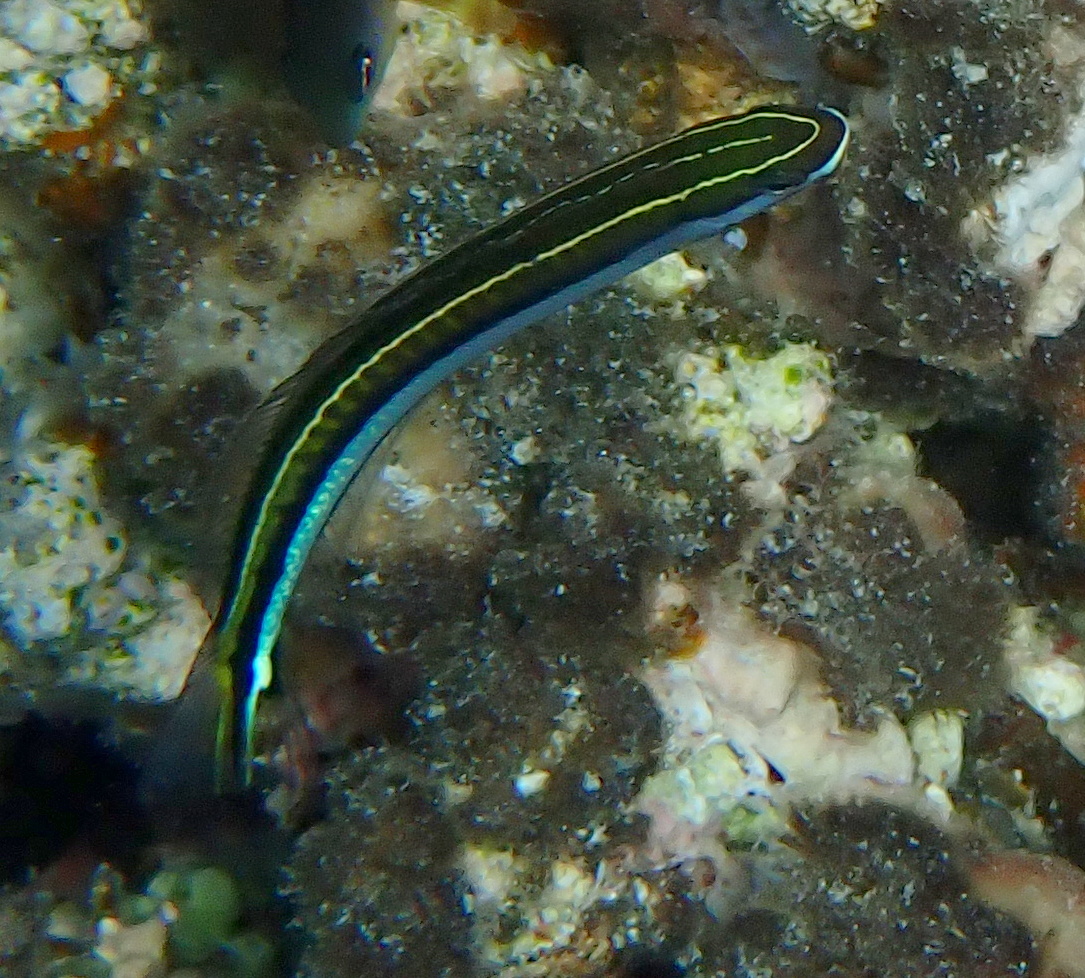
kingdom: Animalia
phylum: Chordata
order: Perciformes
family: Blenniidae
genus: Plagiotremus
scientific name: Plagiotremus tapeinosoma
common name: Hit and run blenny
